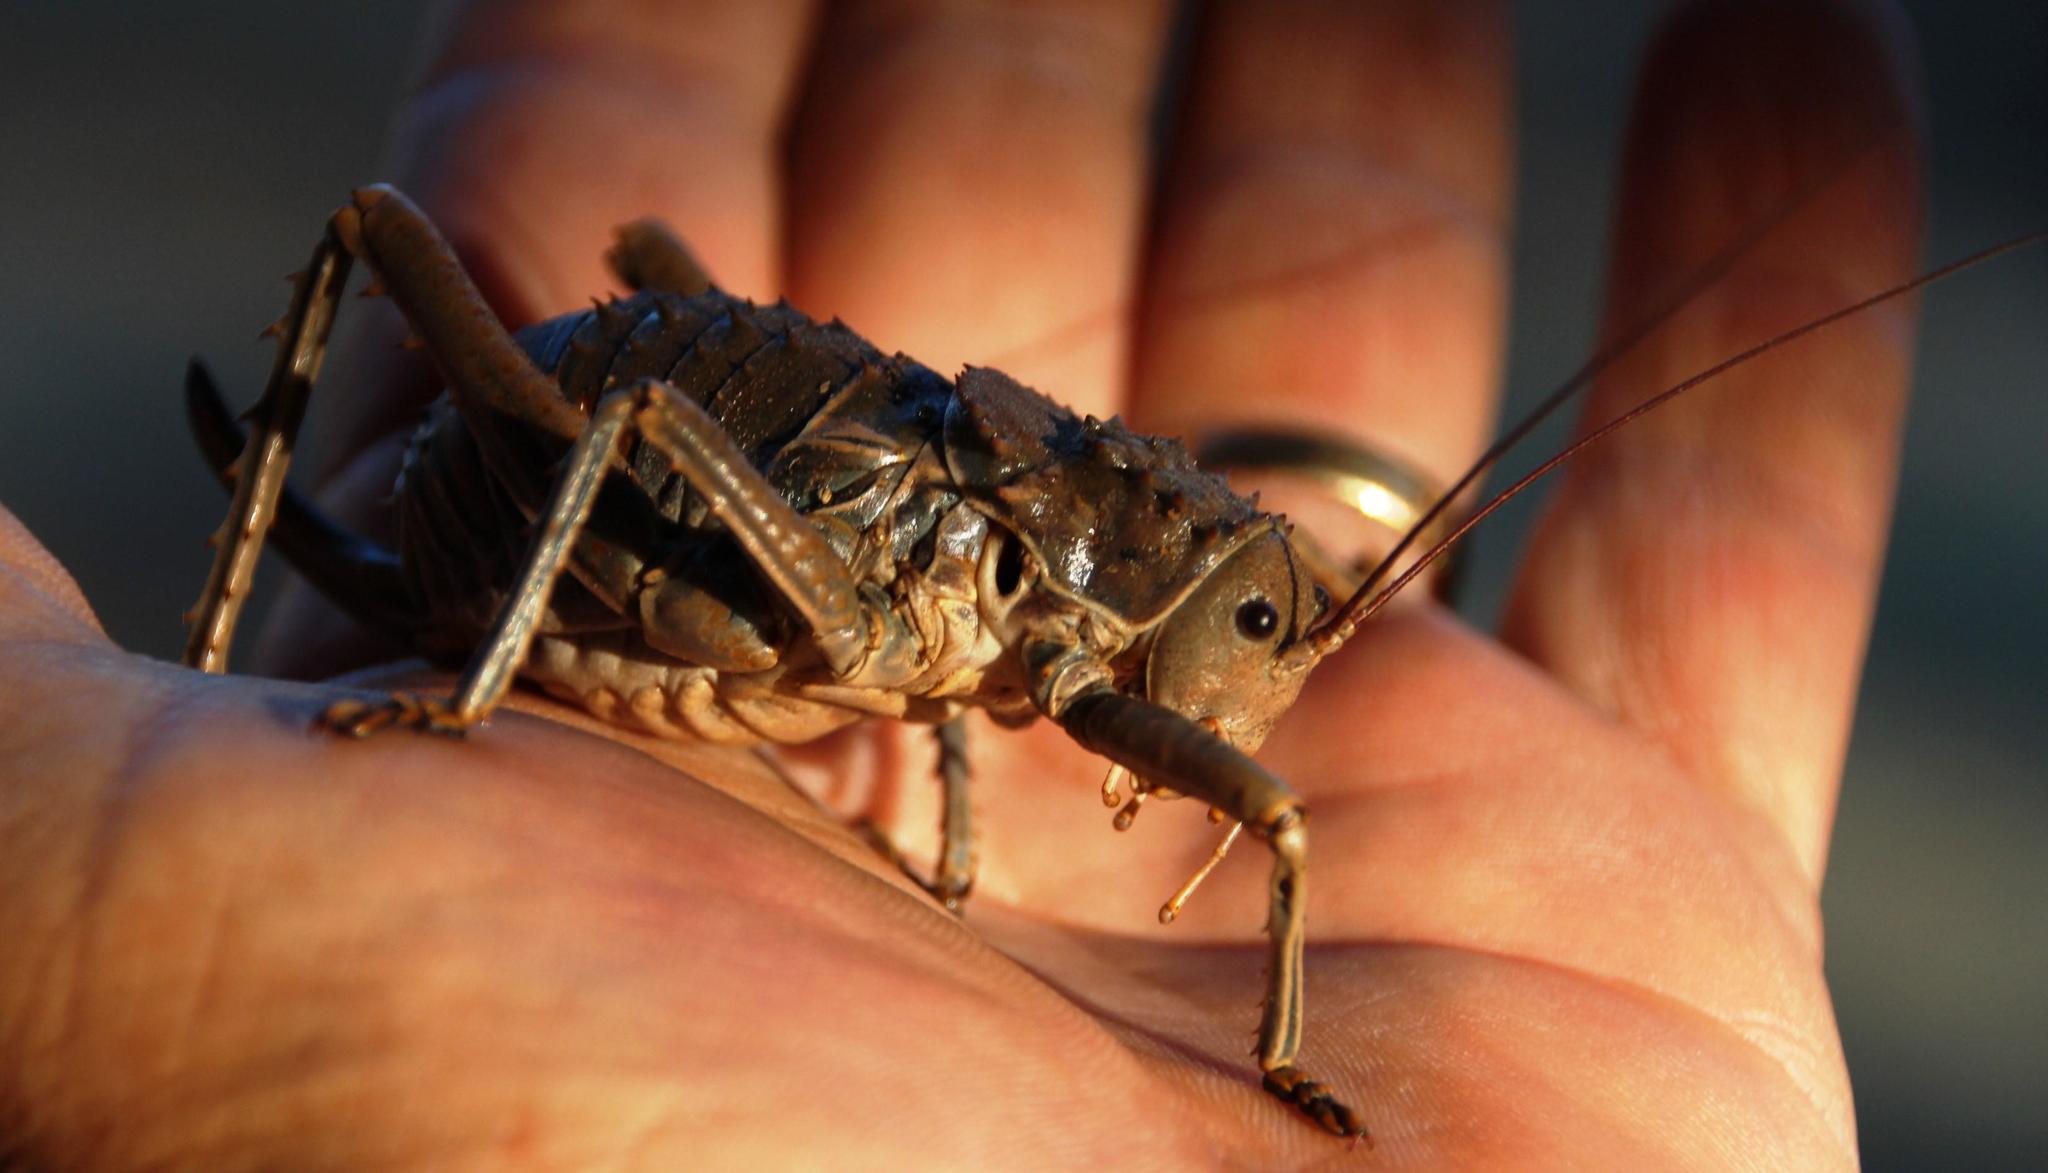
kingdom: Animalia
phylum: Arthropoda
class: Insecta
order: Orthoptera
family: Tettigoniidae
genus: Hetrodes
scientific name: Hetrodes pupus
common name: Koringkriek
